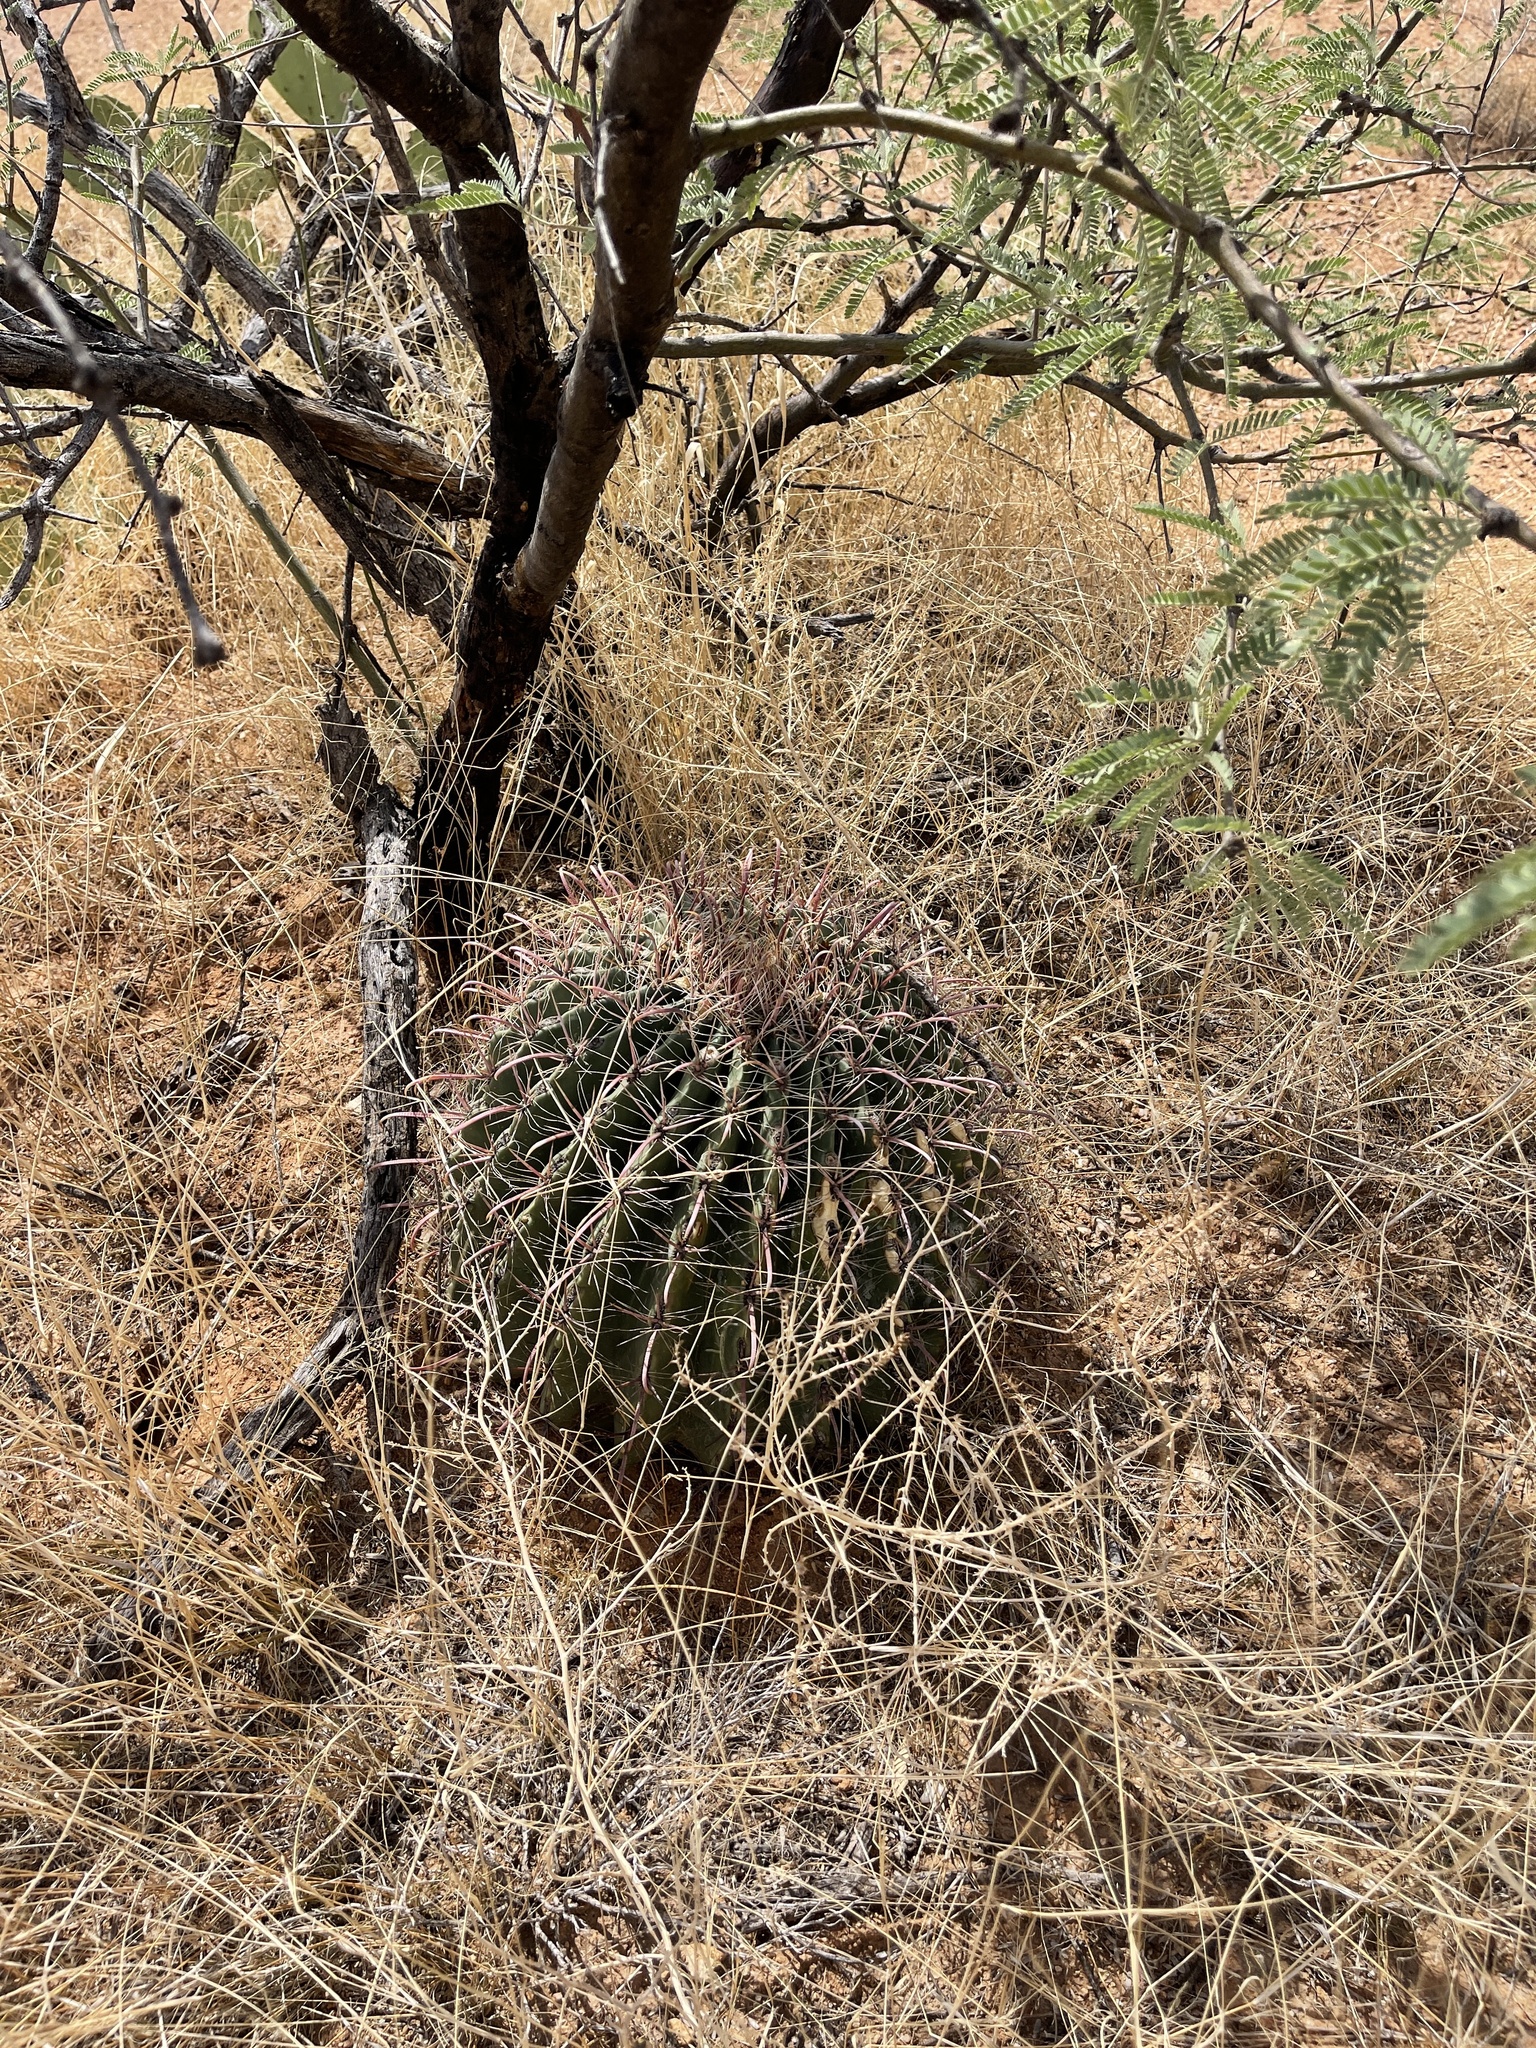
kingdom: Plantae
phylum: Tracheophyta
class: Magnoliopsida
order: Caryophyllales
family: Cactaceae
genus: Ferocactus
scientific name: Ferocactus wislizeni
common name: Candy barrel cactus
